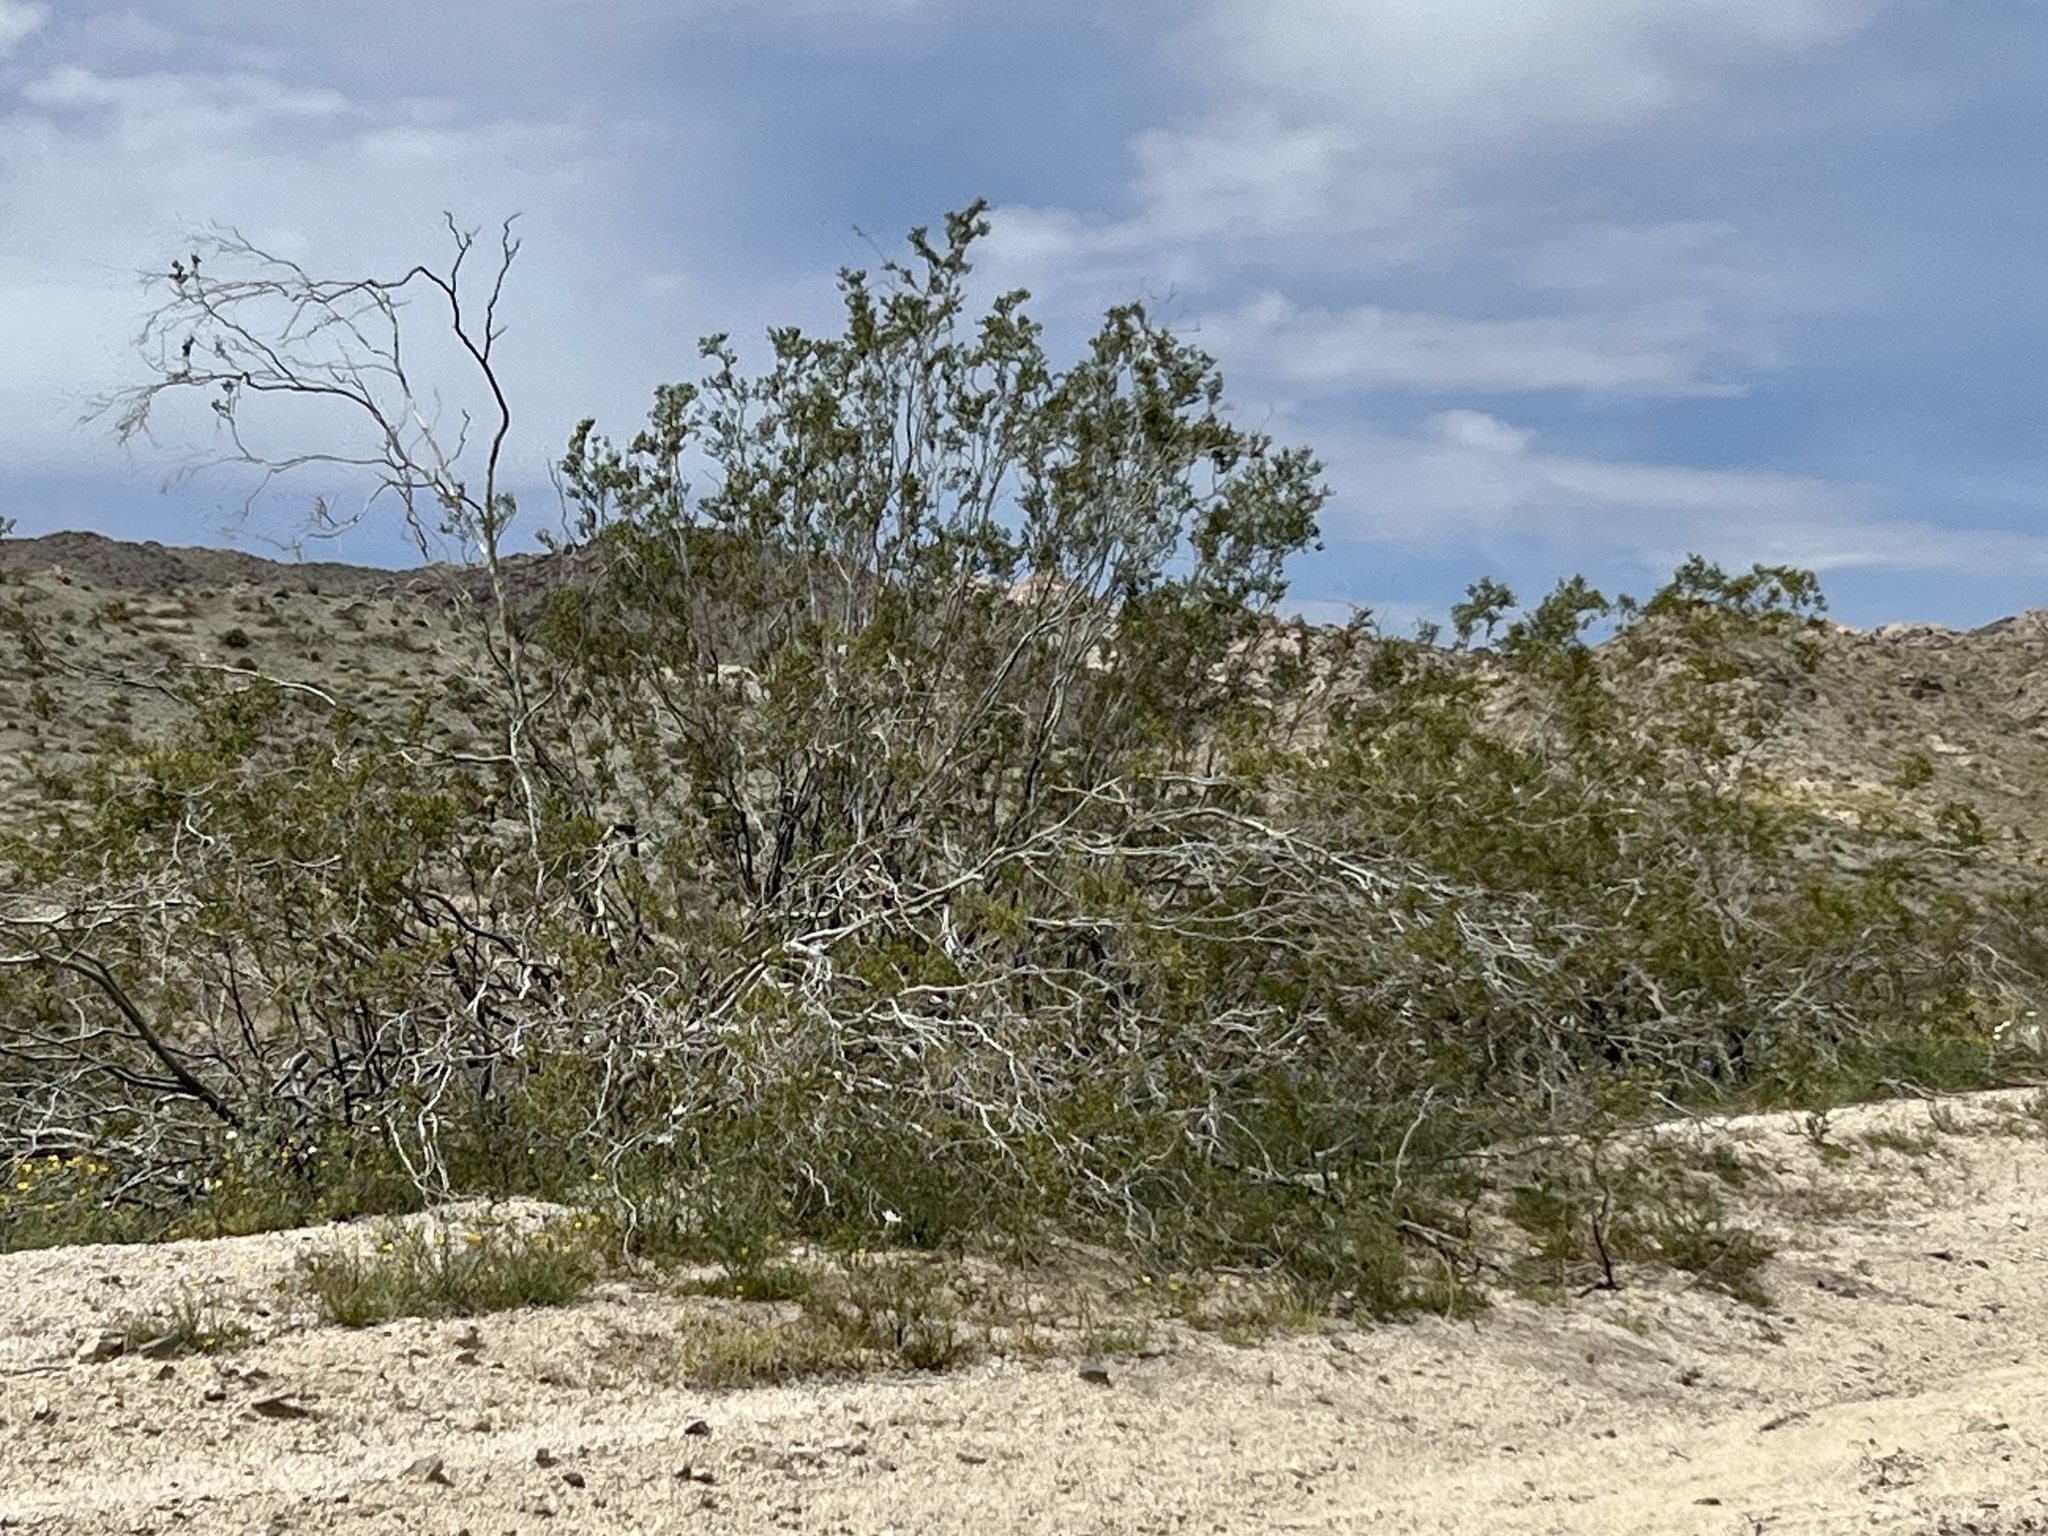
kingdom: Plantae
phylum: Tracheophyta
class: Magnoliopsida
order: Zygophyllales
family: Zygophyllaceae
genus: Larrea
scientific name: Larrea tridentata
